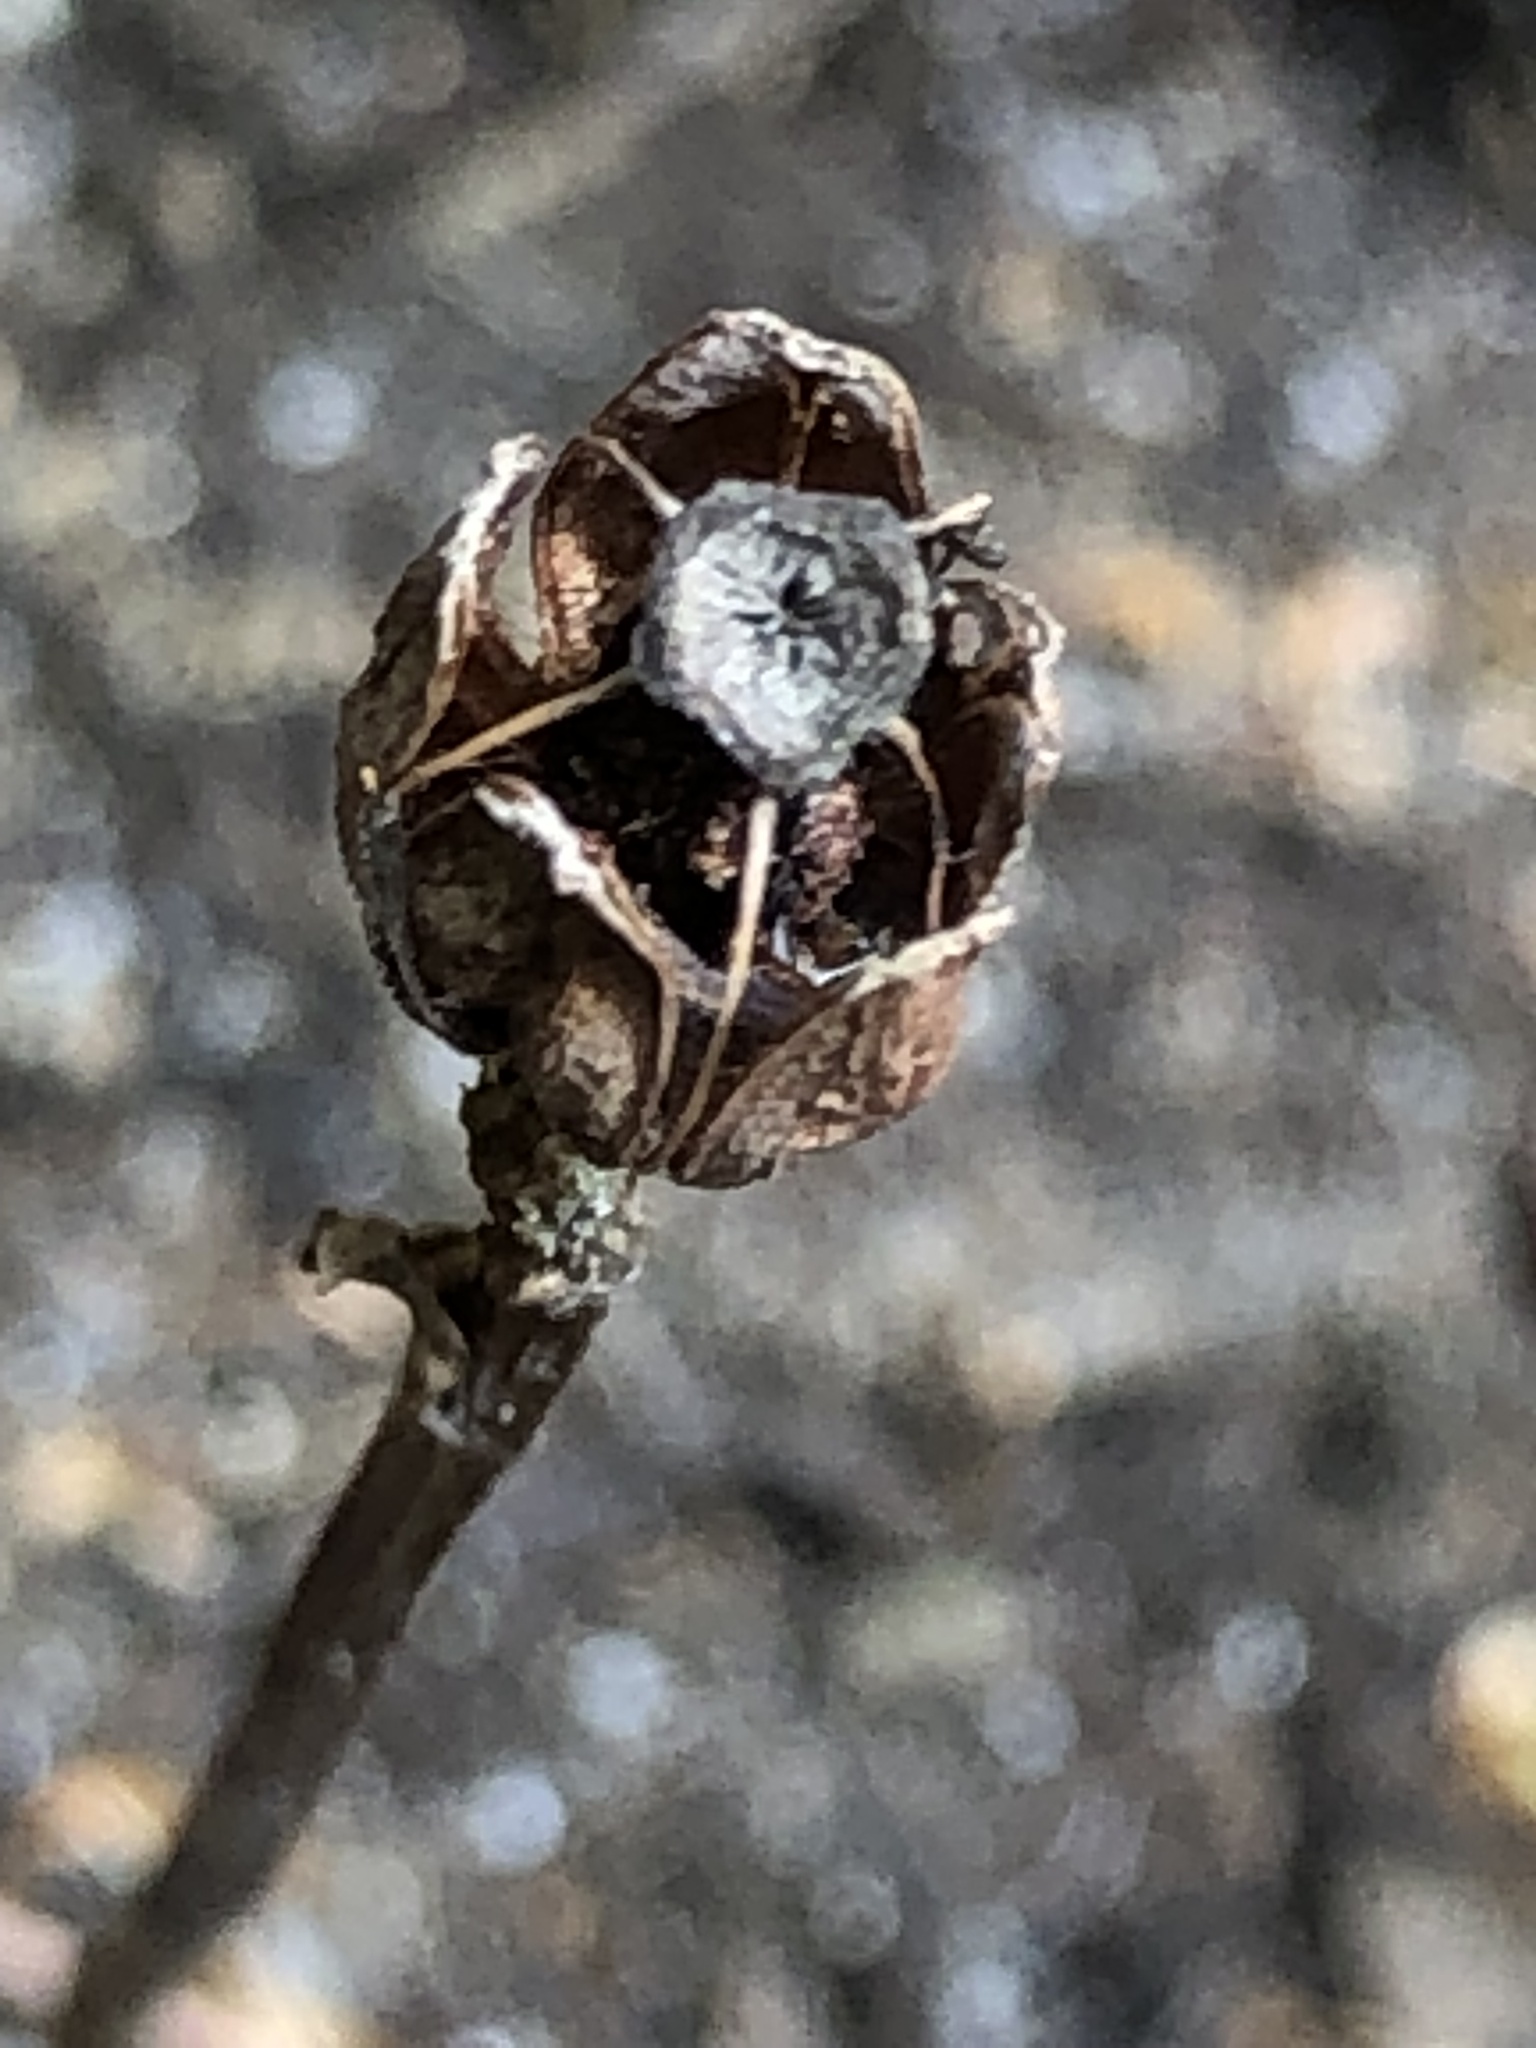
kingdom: Plantae
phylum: Tracheophyta
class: Magnoliopsida
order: Ericales
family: Ericaceae
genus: Monotropa
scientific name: Monotropa uniflora
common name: Convulsion root
